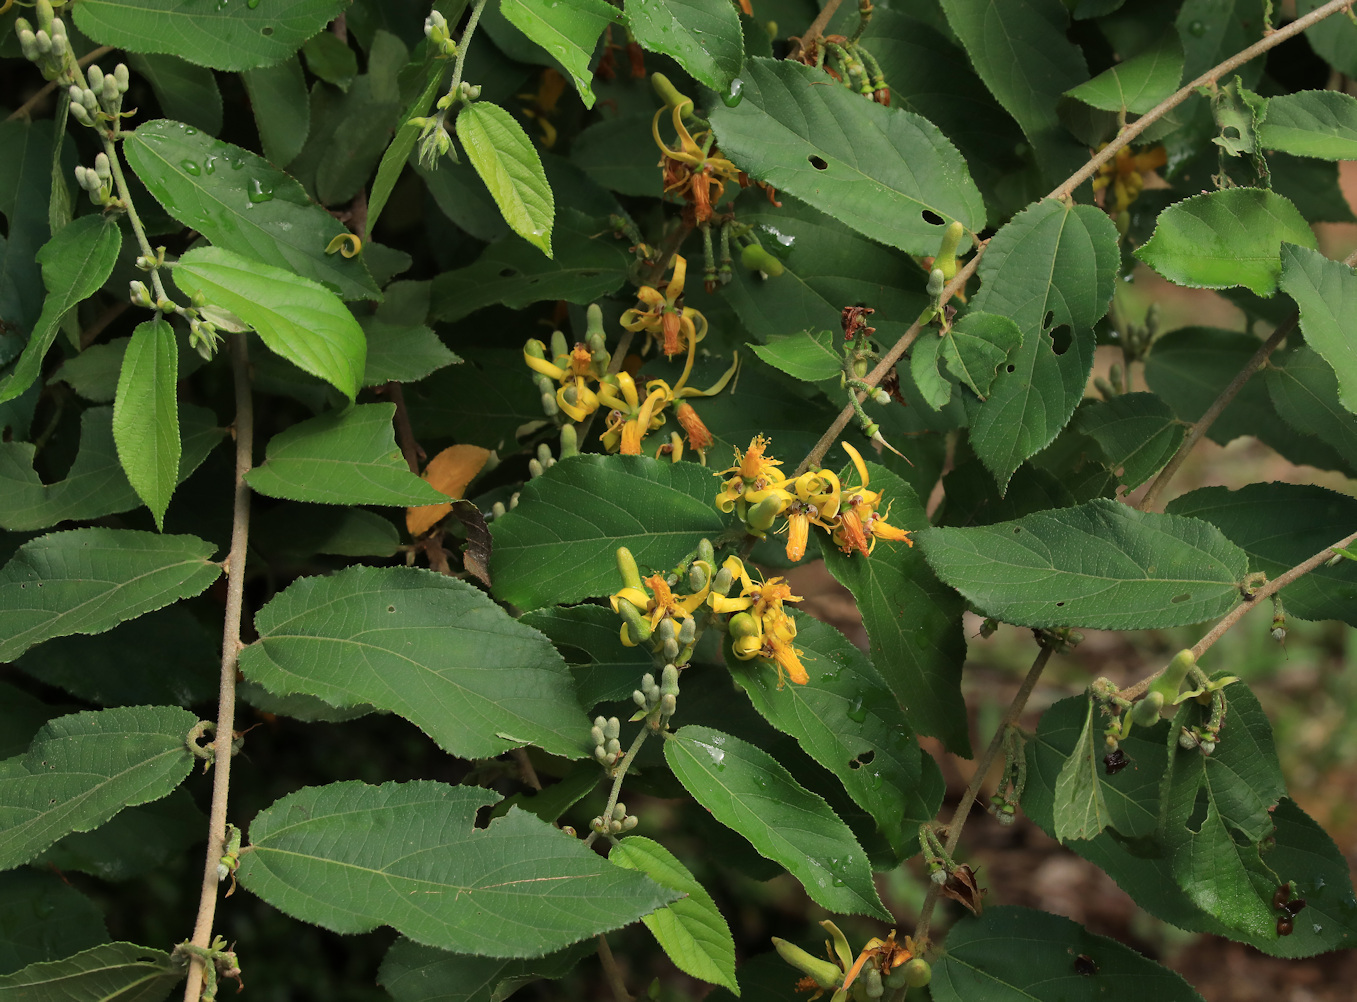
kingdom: Plantae
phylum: Tracheophyta
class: Magnoliopsida
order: Malvales
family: Malvaceae
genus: Grewia
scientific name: Grewia flavescens
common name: Sandpaper raisin
